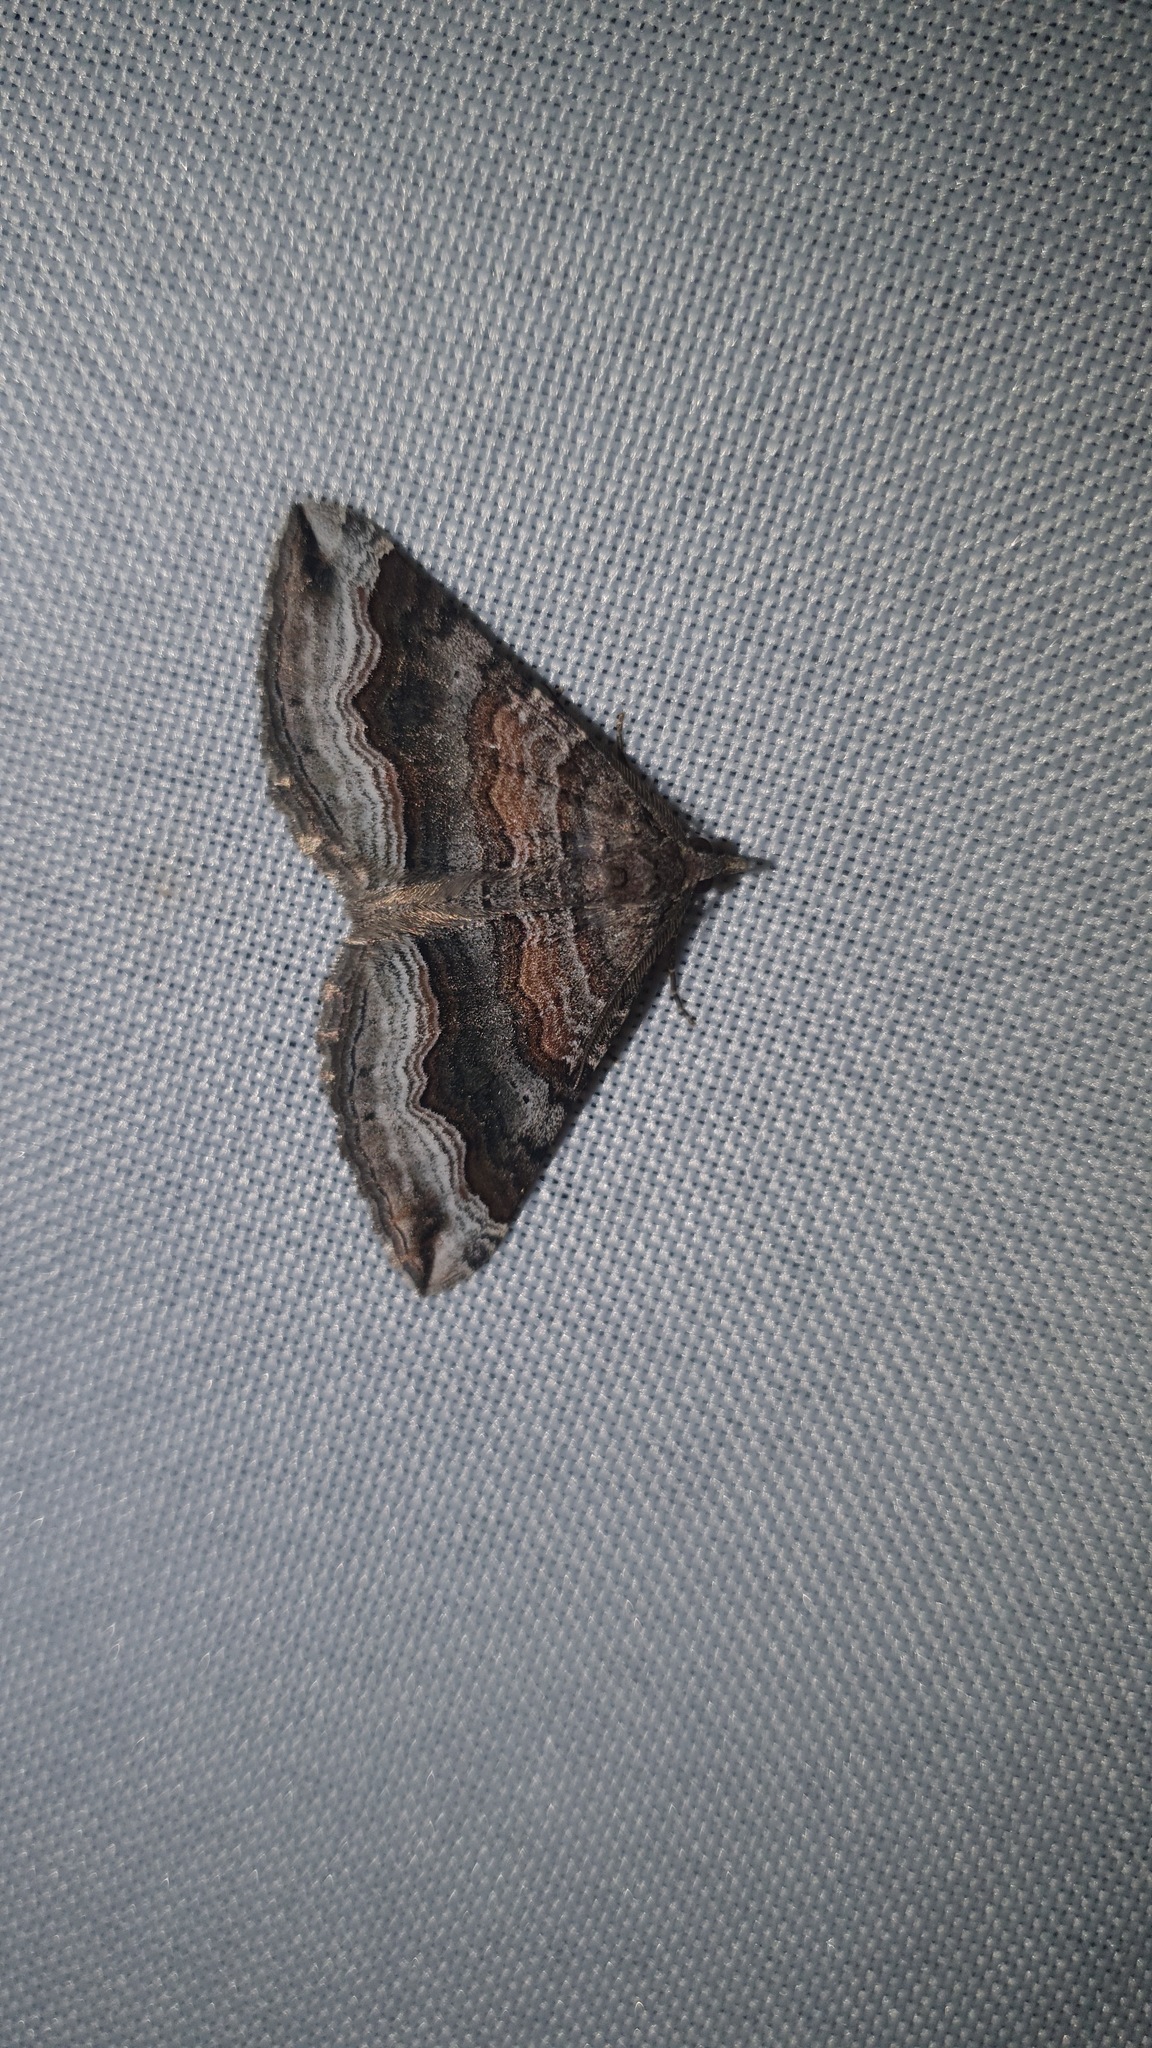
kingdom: Animalia
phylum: Arthropoda
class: Insecta
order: Lepidoptera
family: Geometridae
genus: Scotopteryx
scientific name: Scotopteryx coelinaria
